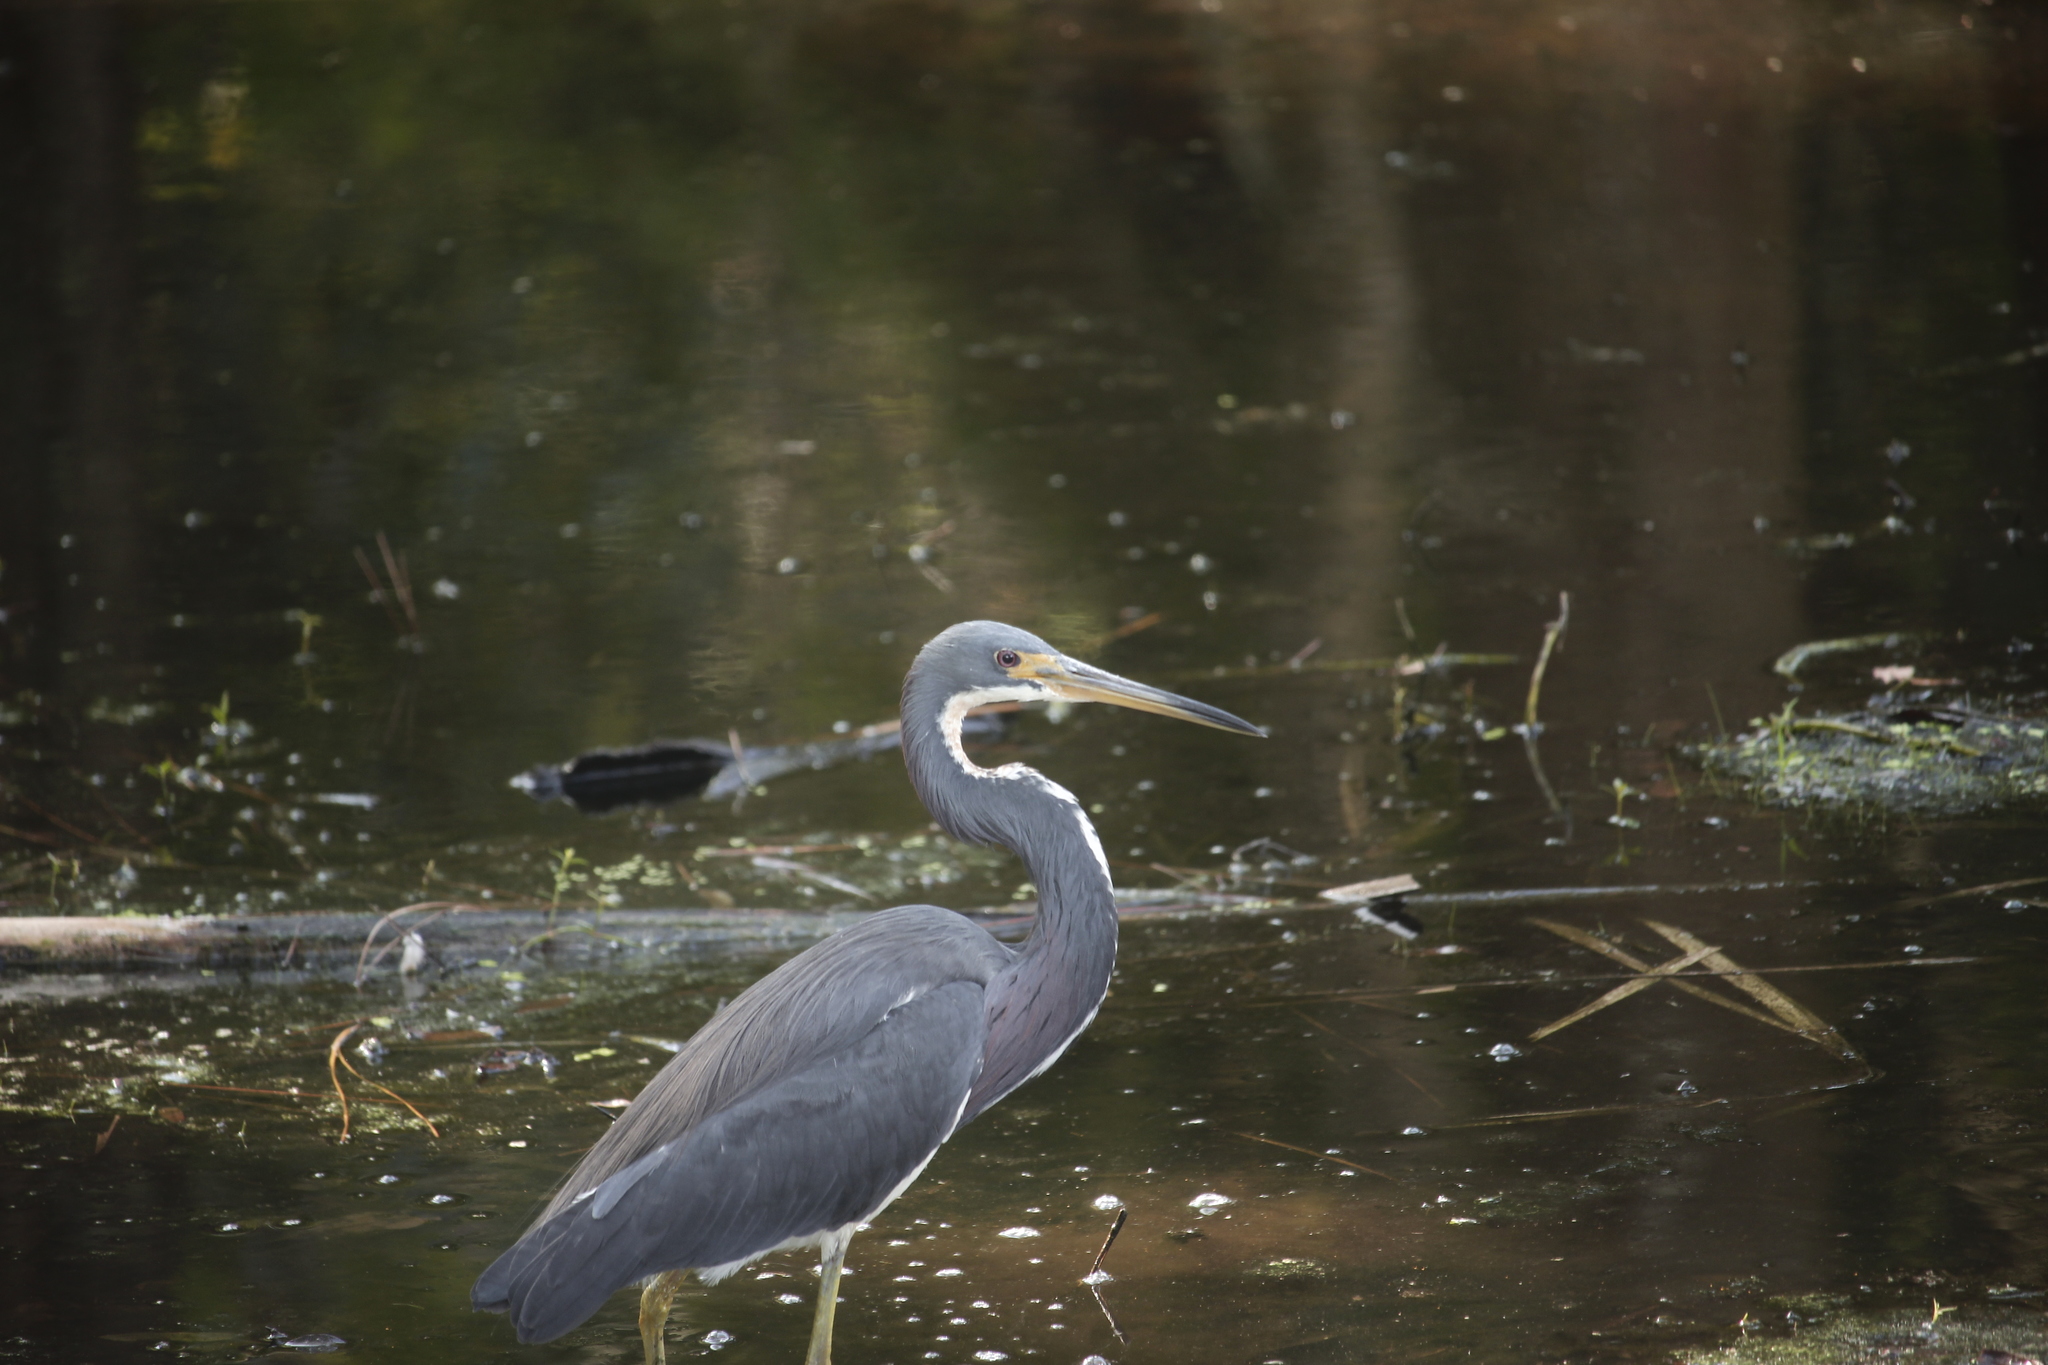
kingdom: Animalia
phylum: Chordata
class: Aves
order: Pelecaniformes
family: Ardeidae
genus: Egretta
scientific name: Egretta tricolor
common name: Tricolored heron
